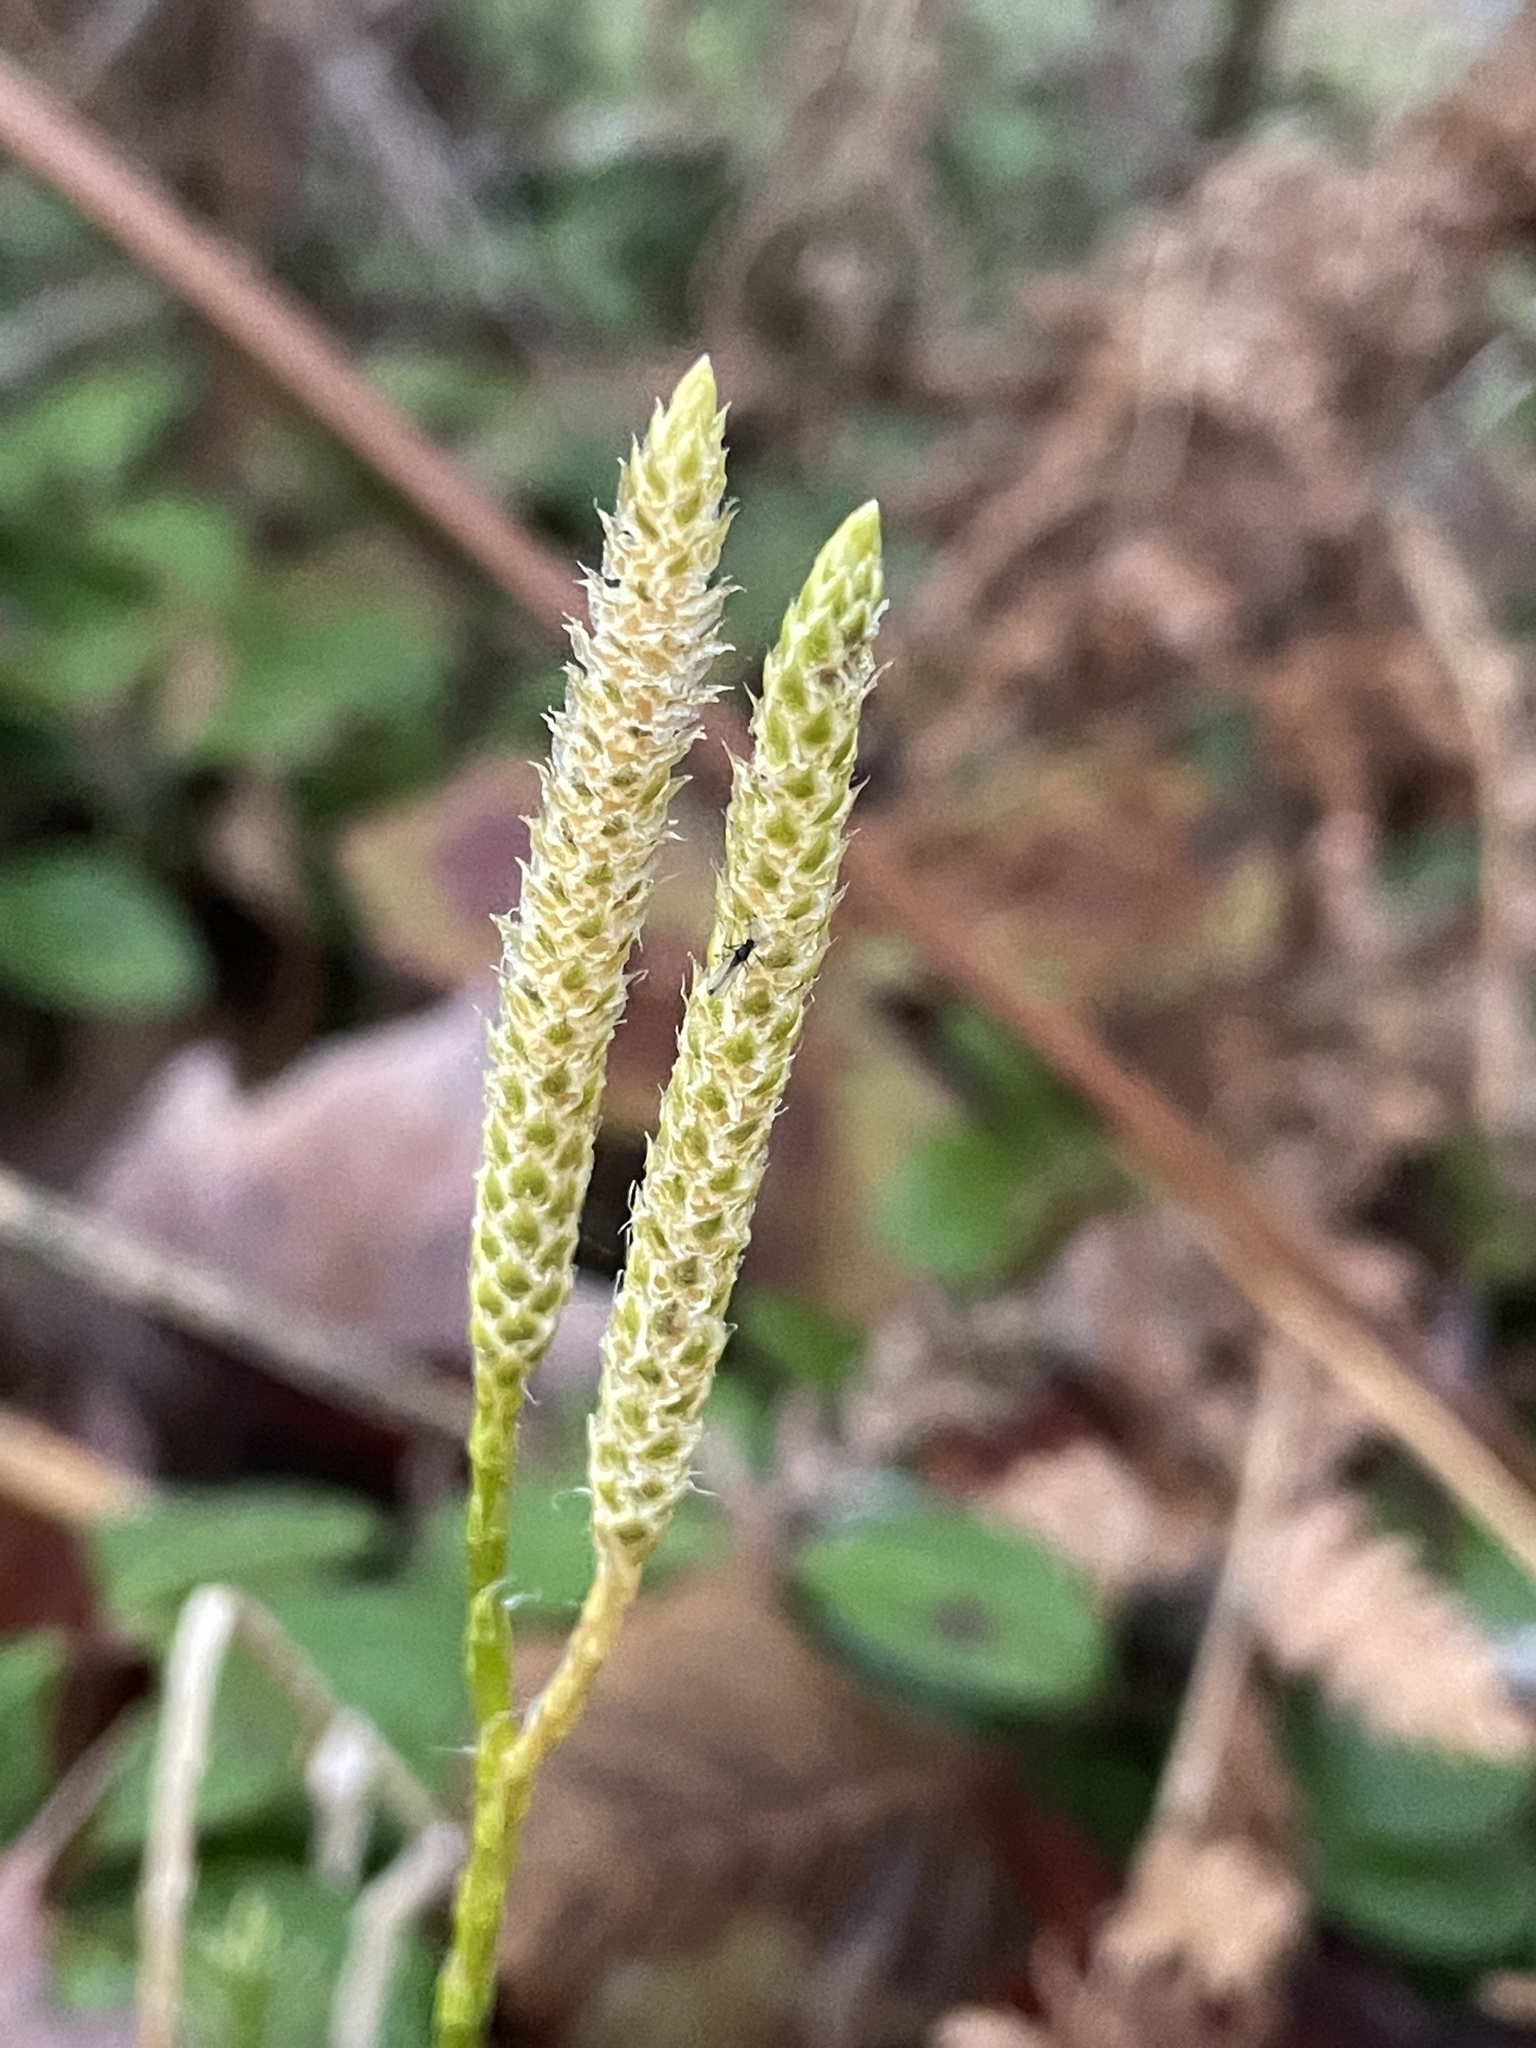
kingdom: Plantae
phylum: Tracheophyta
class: Lycopodiopsida
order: Lycopodiales
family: Lycopodiaceae
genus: Lycopodium
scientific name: Lycopodium clavatum
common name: Stag's-horn clubmoss
